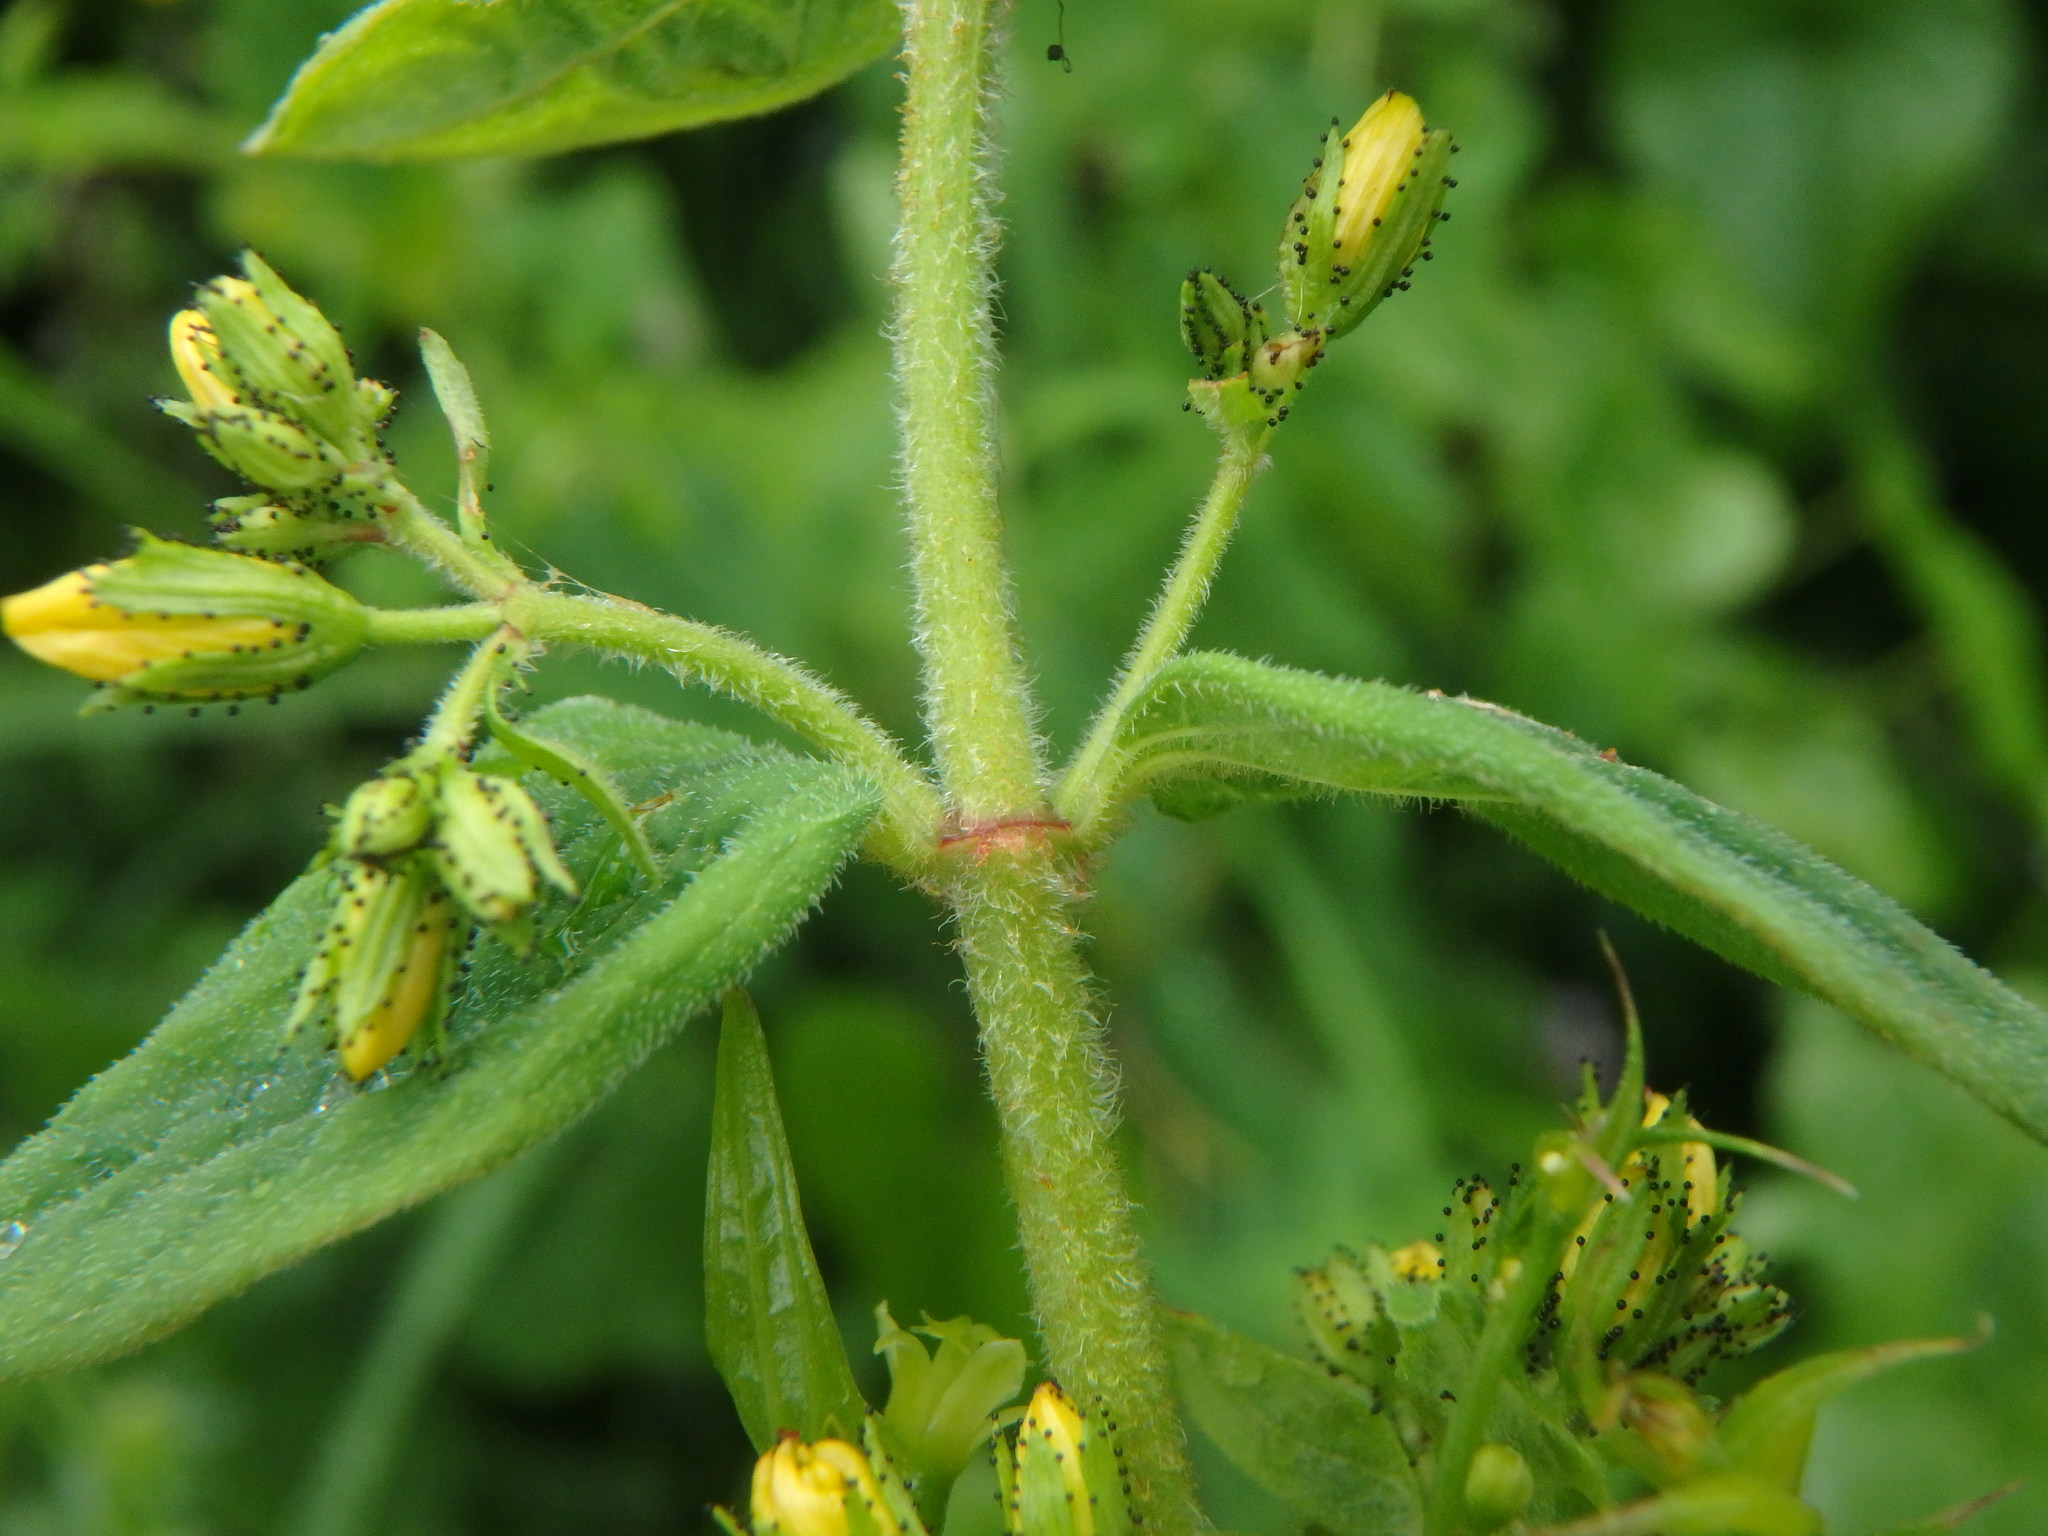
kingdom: Plantae
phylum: Tracheophyta
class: Magnoliopsida
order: Malpighiales
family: Hypericaceae
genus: Hypericum
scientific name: Hypericum hirsutum
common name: Hairy st. john's-wort
